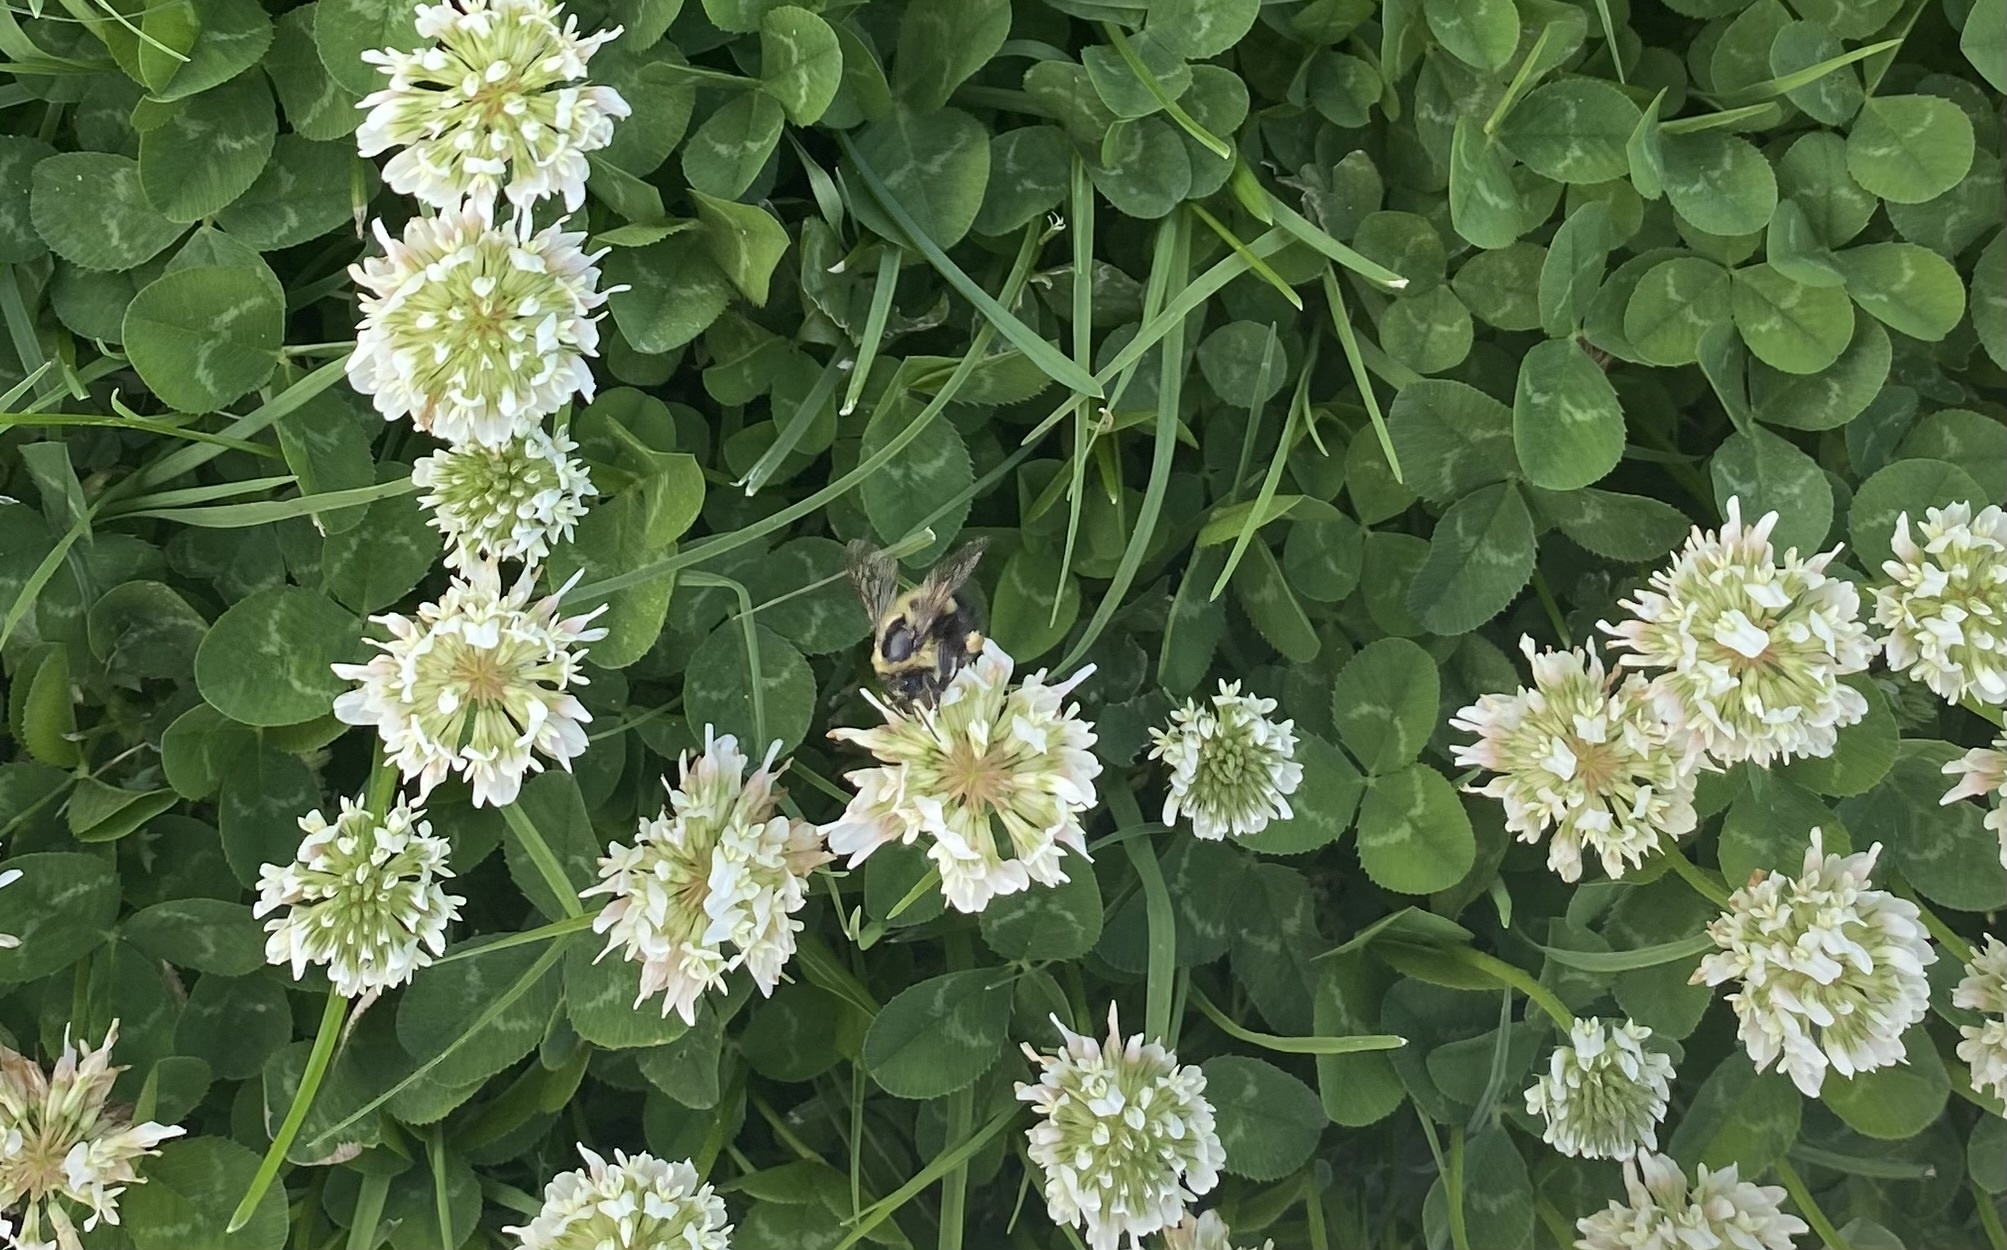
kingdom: Animalia
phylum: Arthropoda
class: Insecta
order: Hymenoptera
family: Apidae
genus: Bombus
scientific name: Bombus bimaculatus
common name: Two-spotted bumble bee
